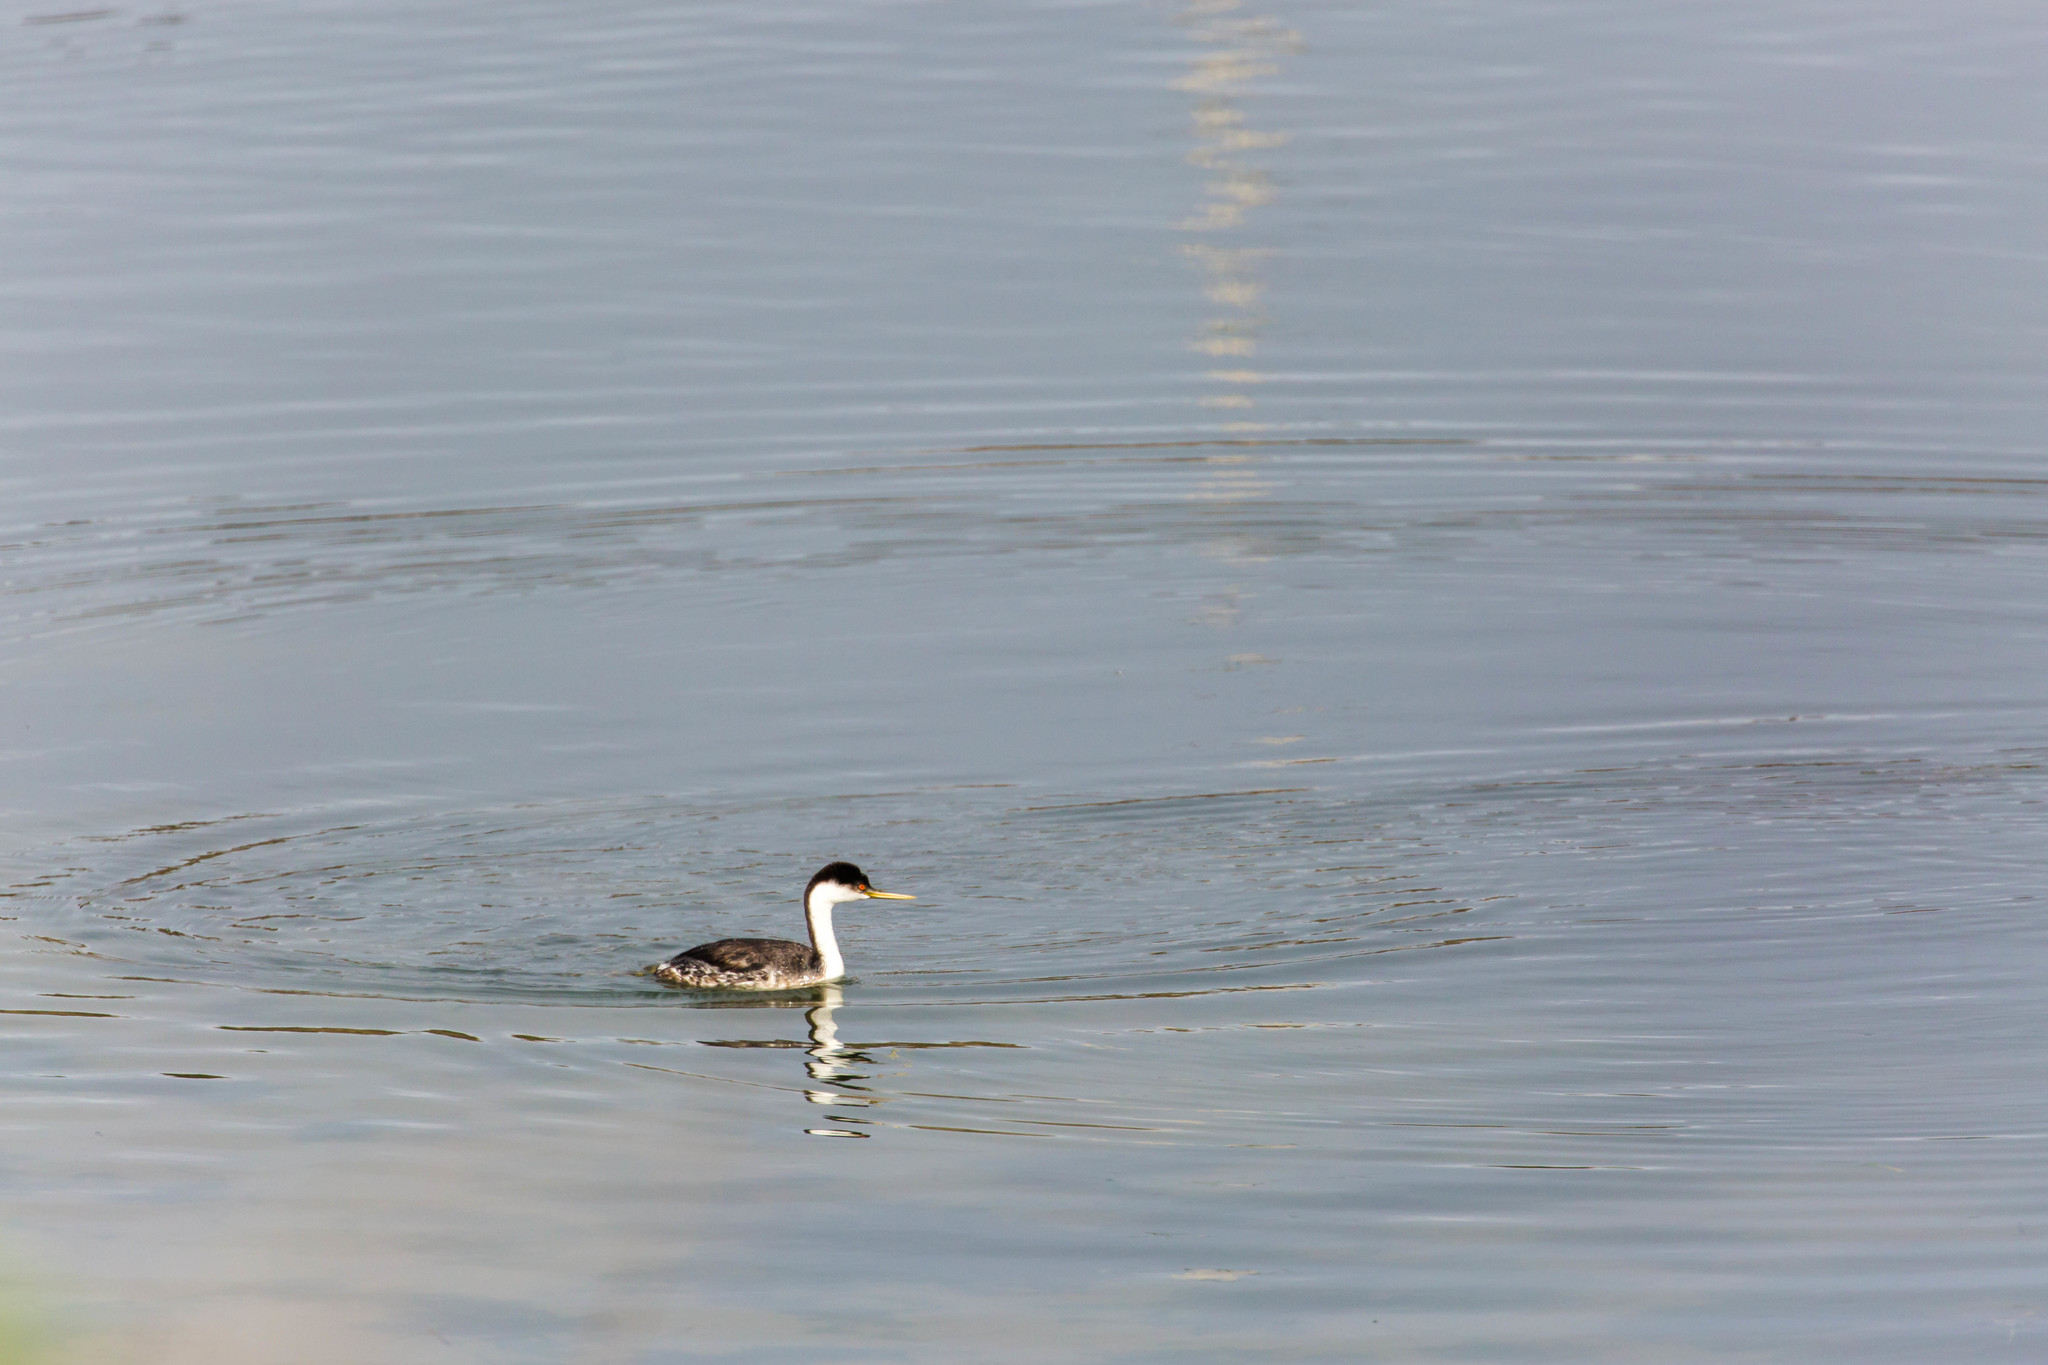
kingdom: Animalia
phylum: Chordata
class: Aves
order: Podicipediformes
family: Podicipedidae
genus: Aechmophorus
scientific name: Aechmophorus occidentalis
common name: Western grebe
